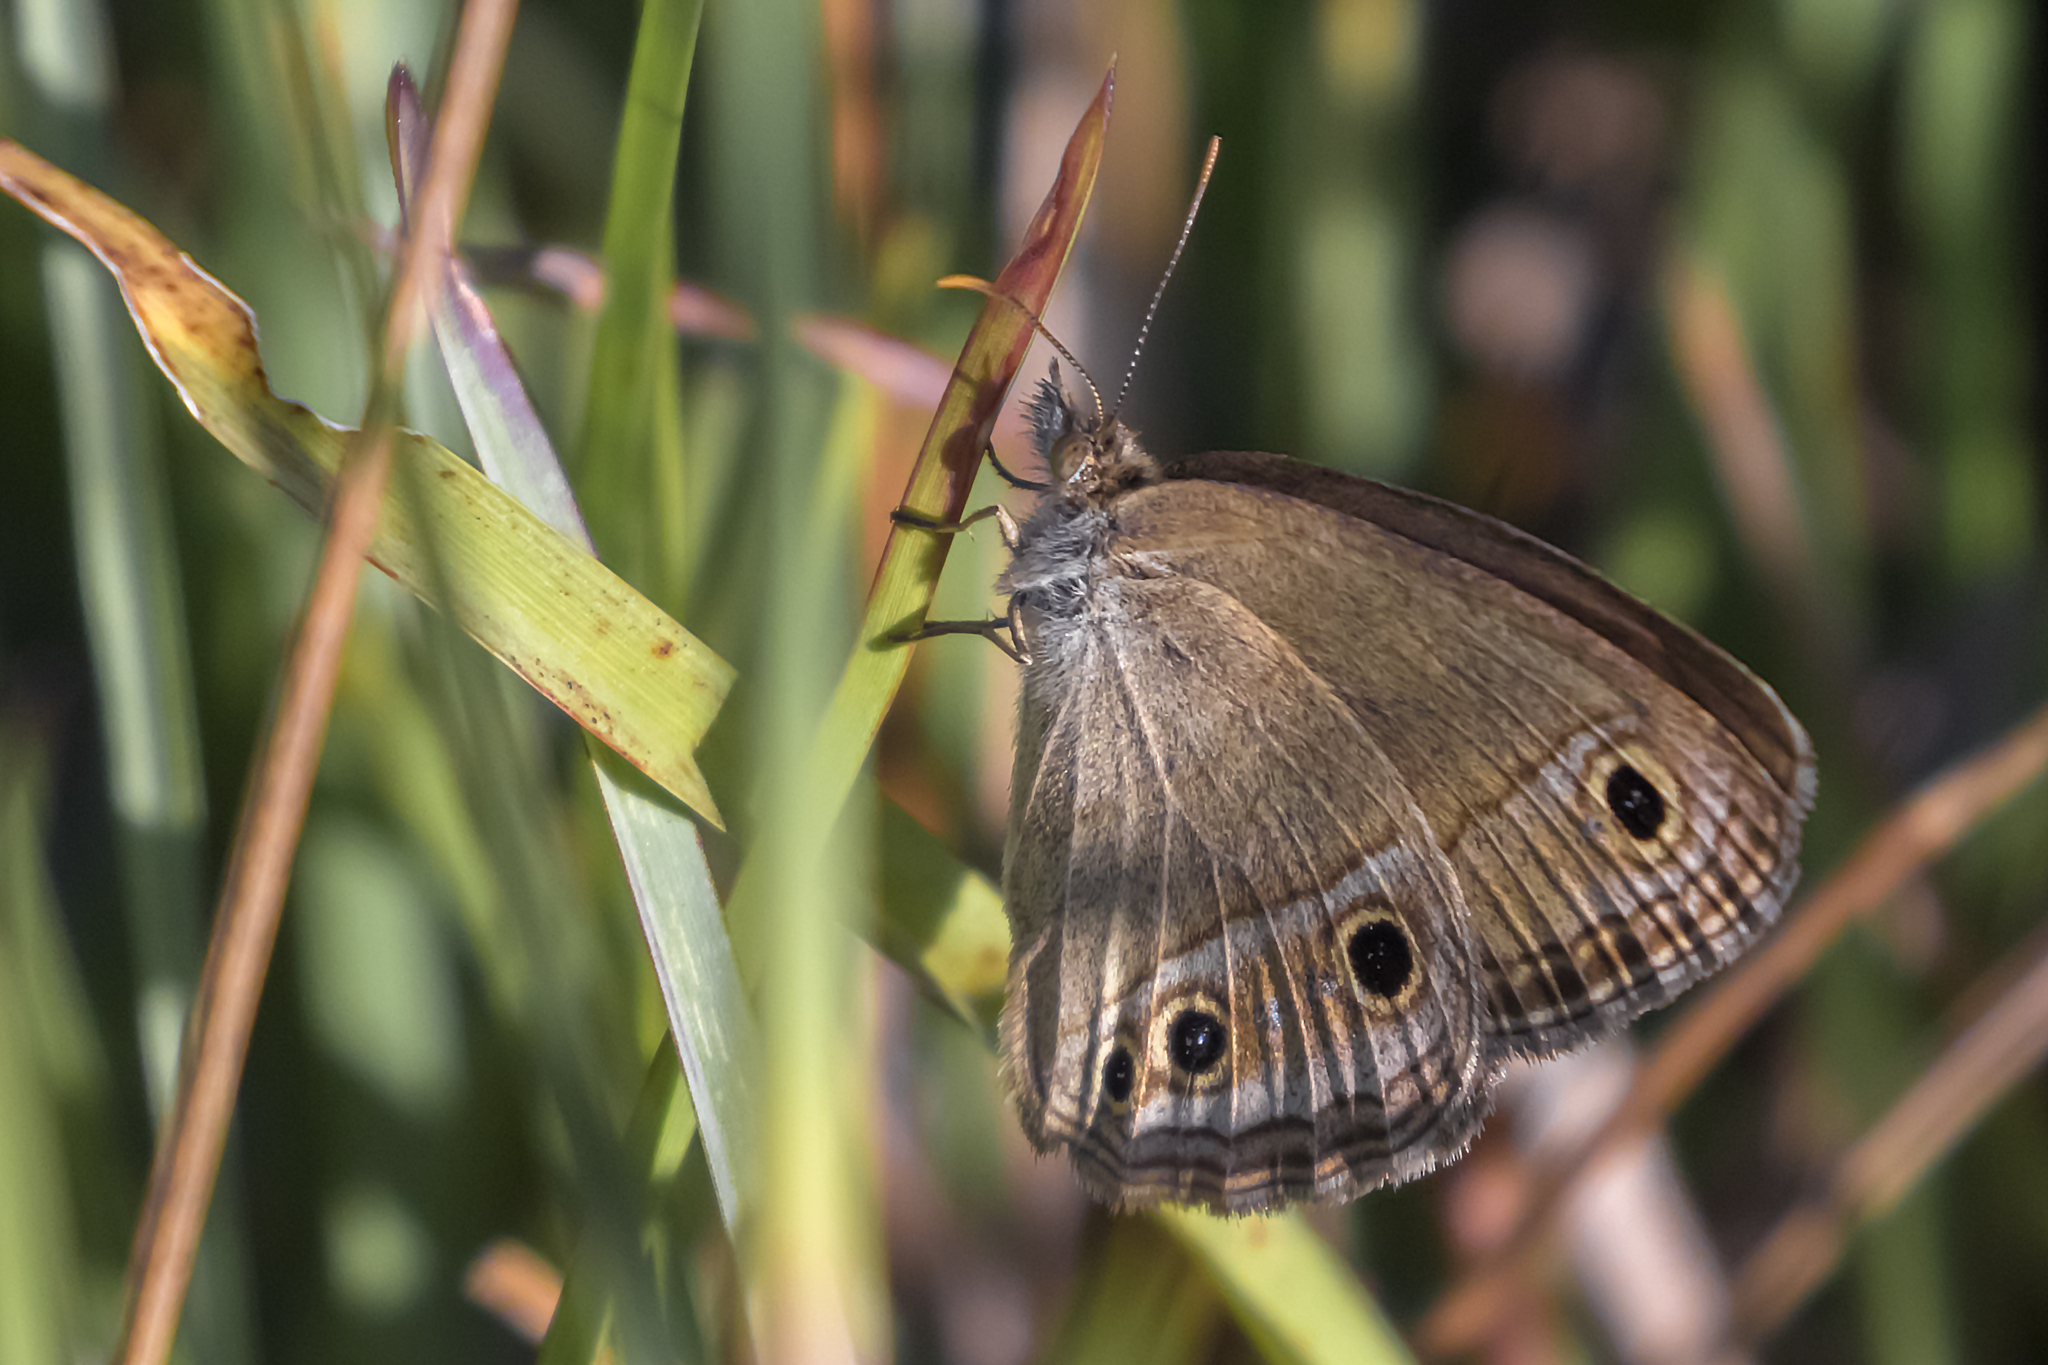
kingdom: Animalia
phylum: Arthropoda
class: Insecta
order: Lepidoptera
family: Nymphalidae
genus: Stegosatyrus
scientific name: Stegosatyrus periphas
